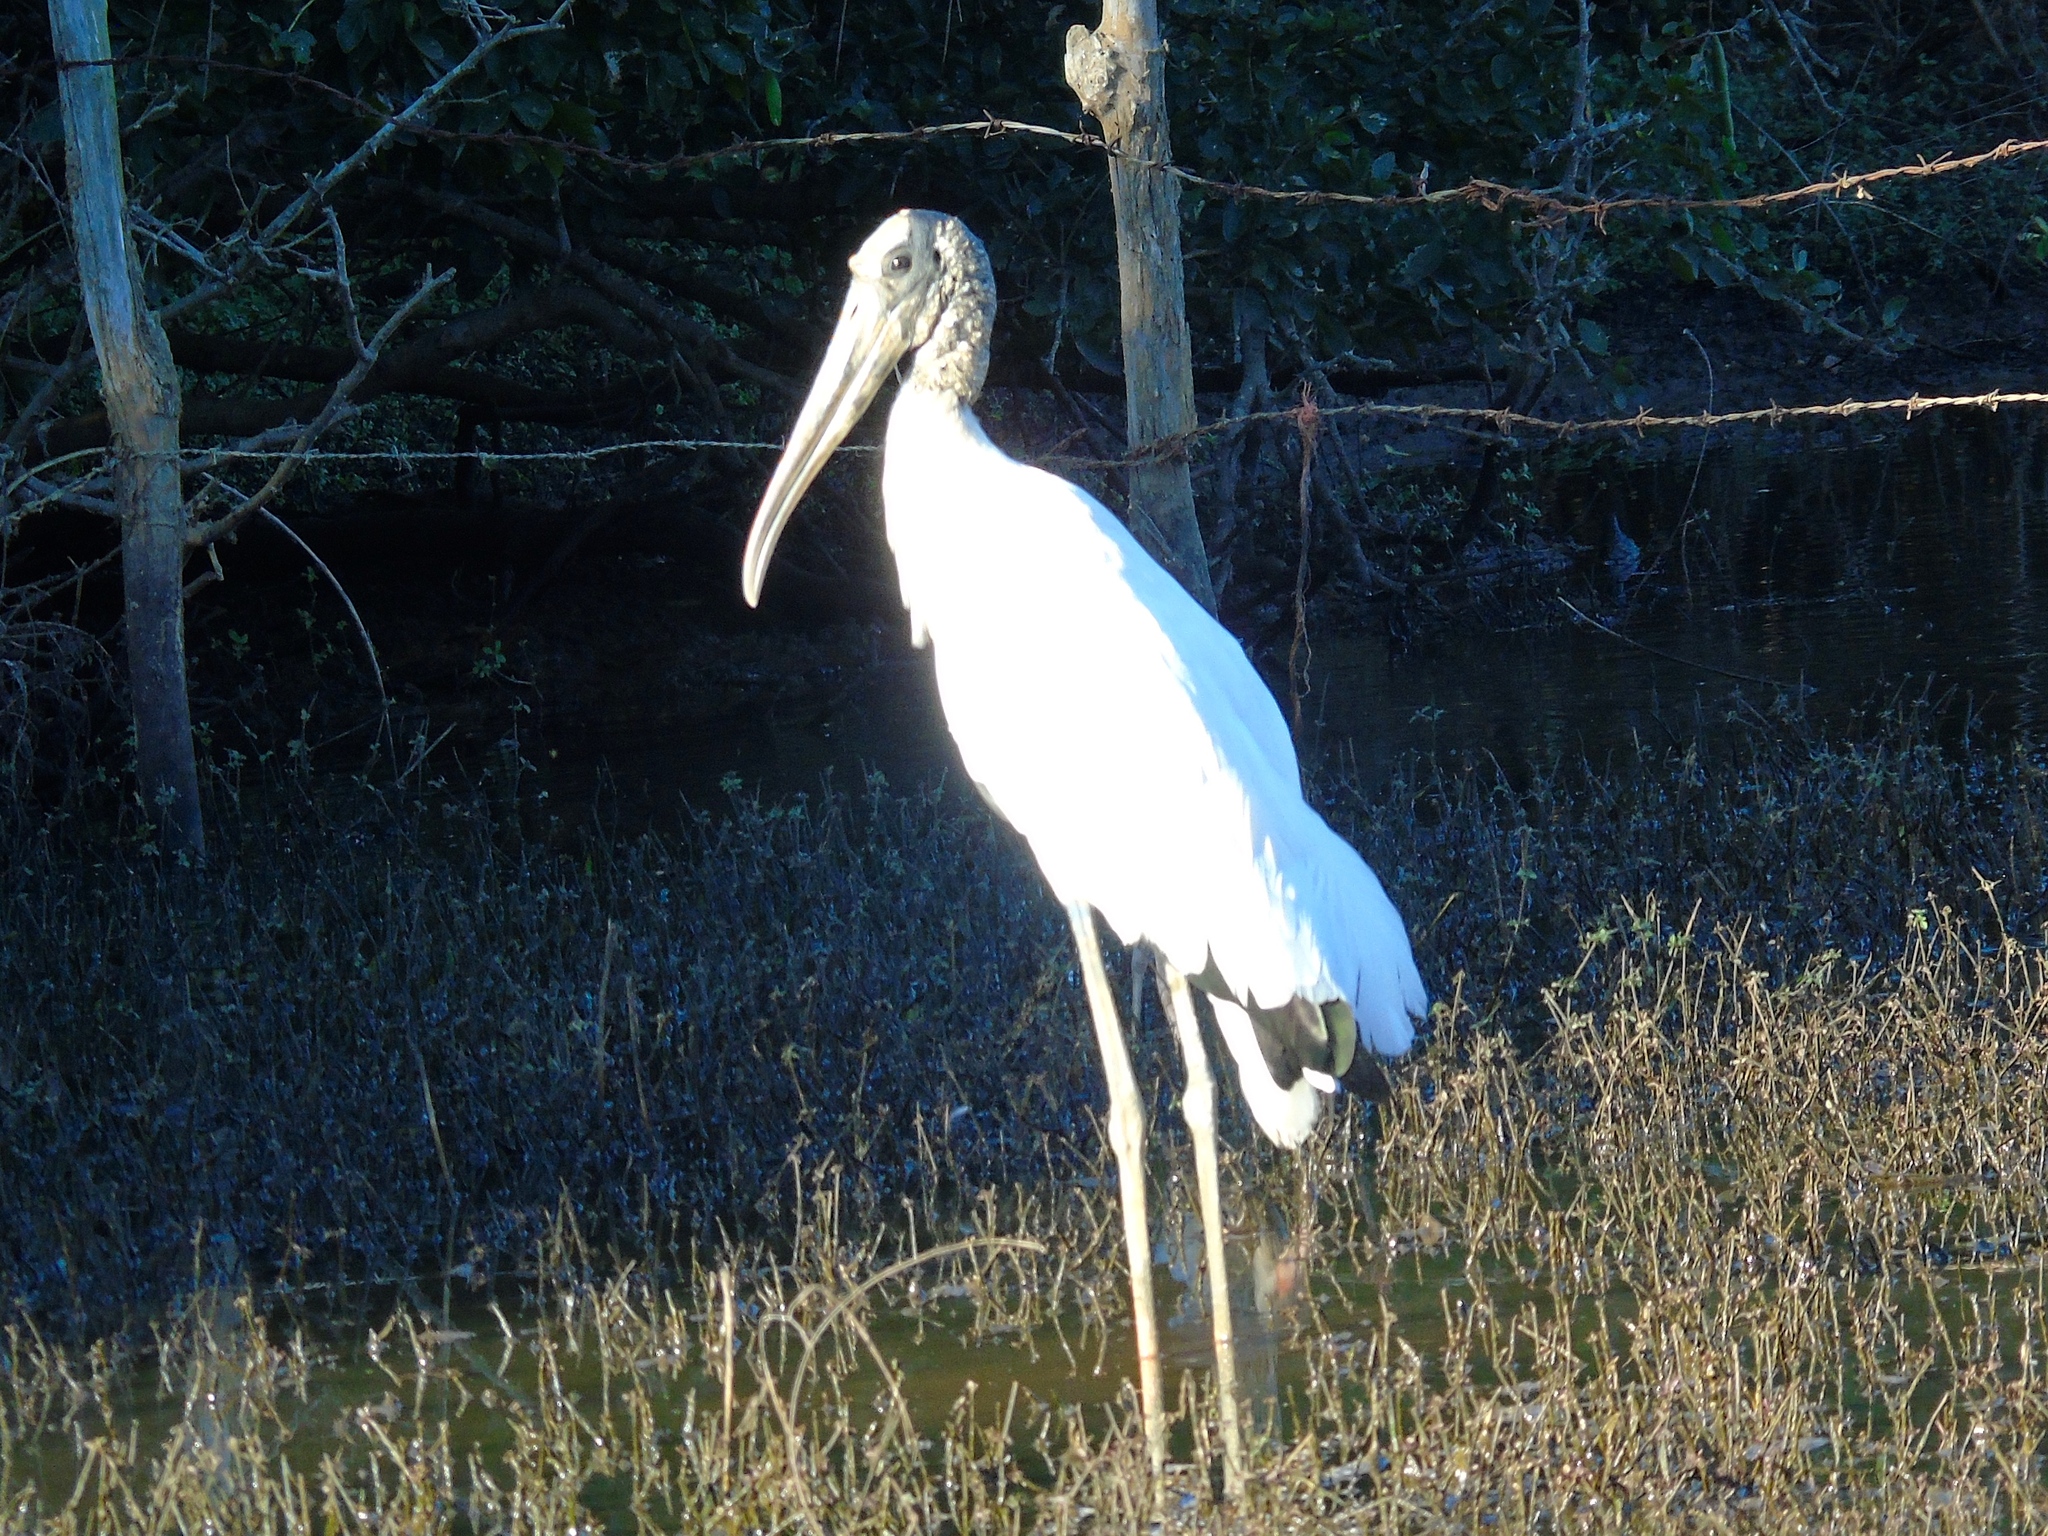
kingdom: Animalia
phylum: Chordata
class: Aves
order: Ciconiiformes
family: Ciconiidae
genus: Mycteria
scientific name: Mycteria americana
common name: Wood stork
